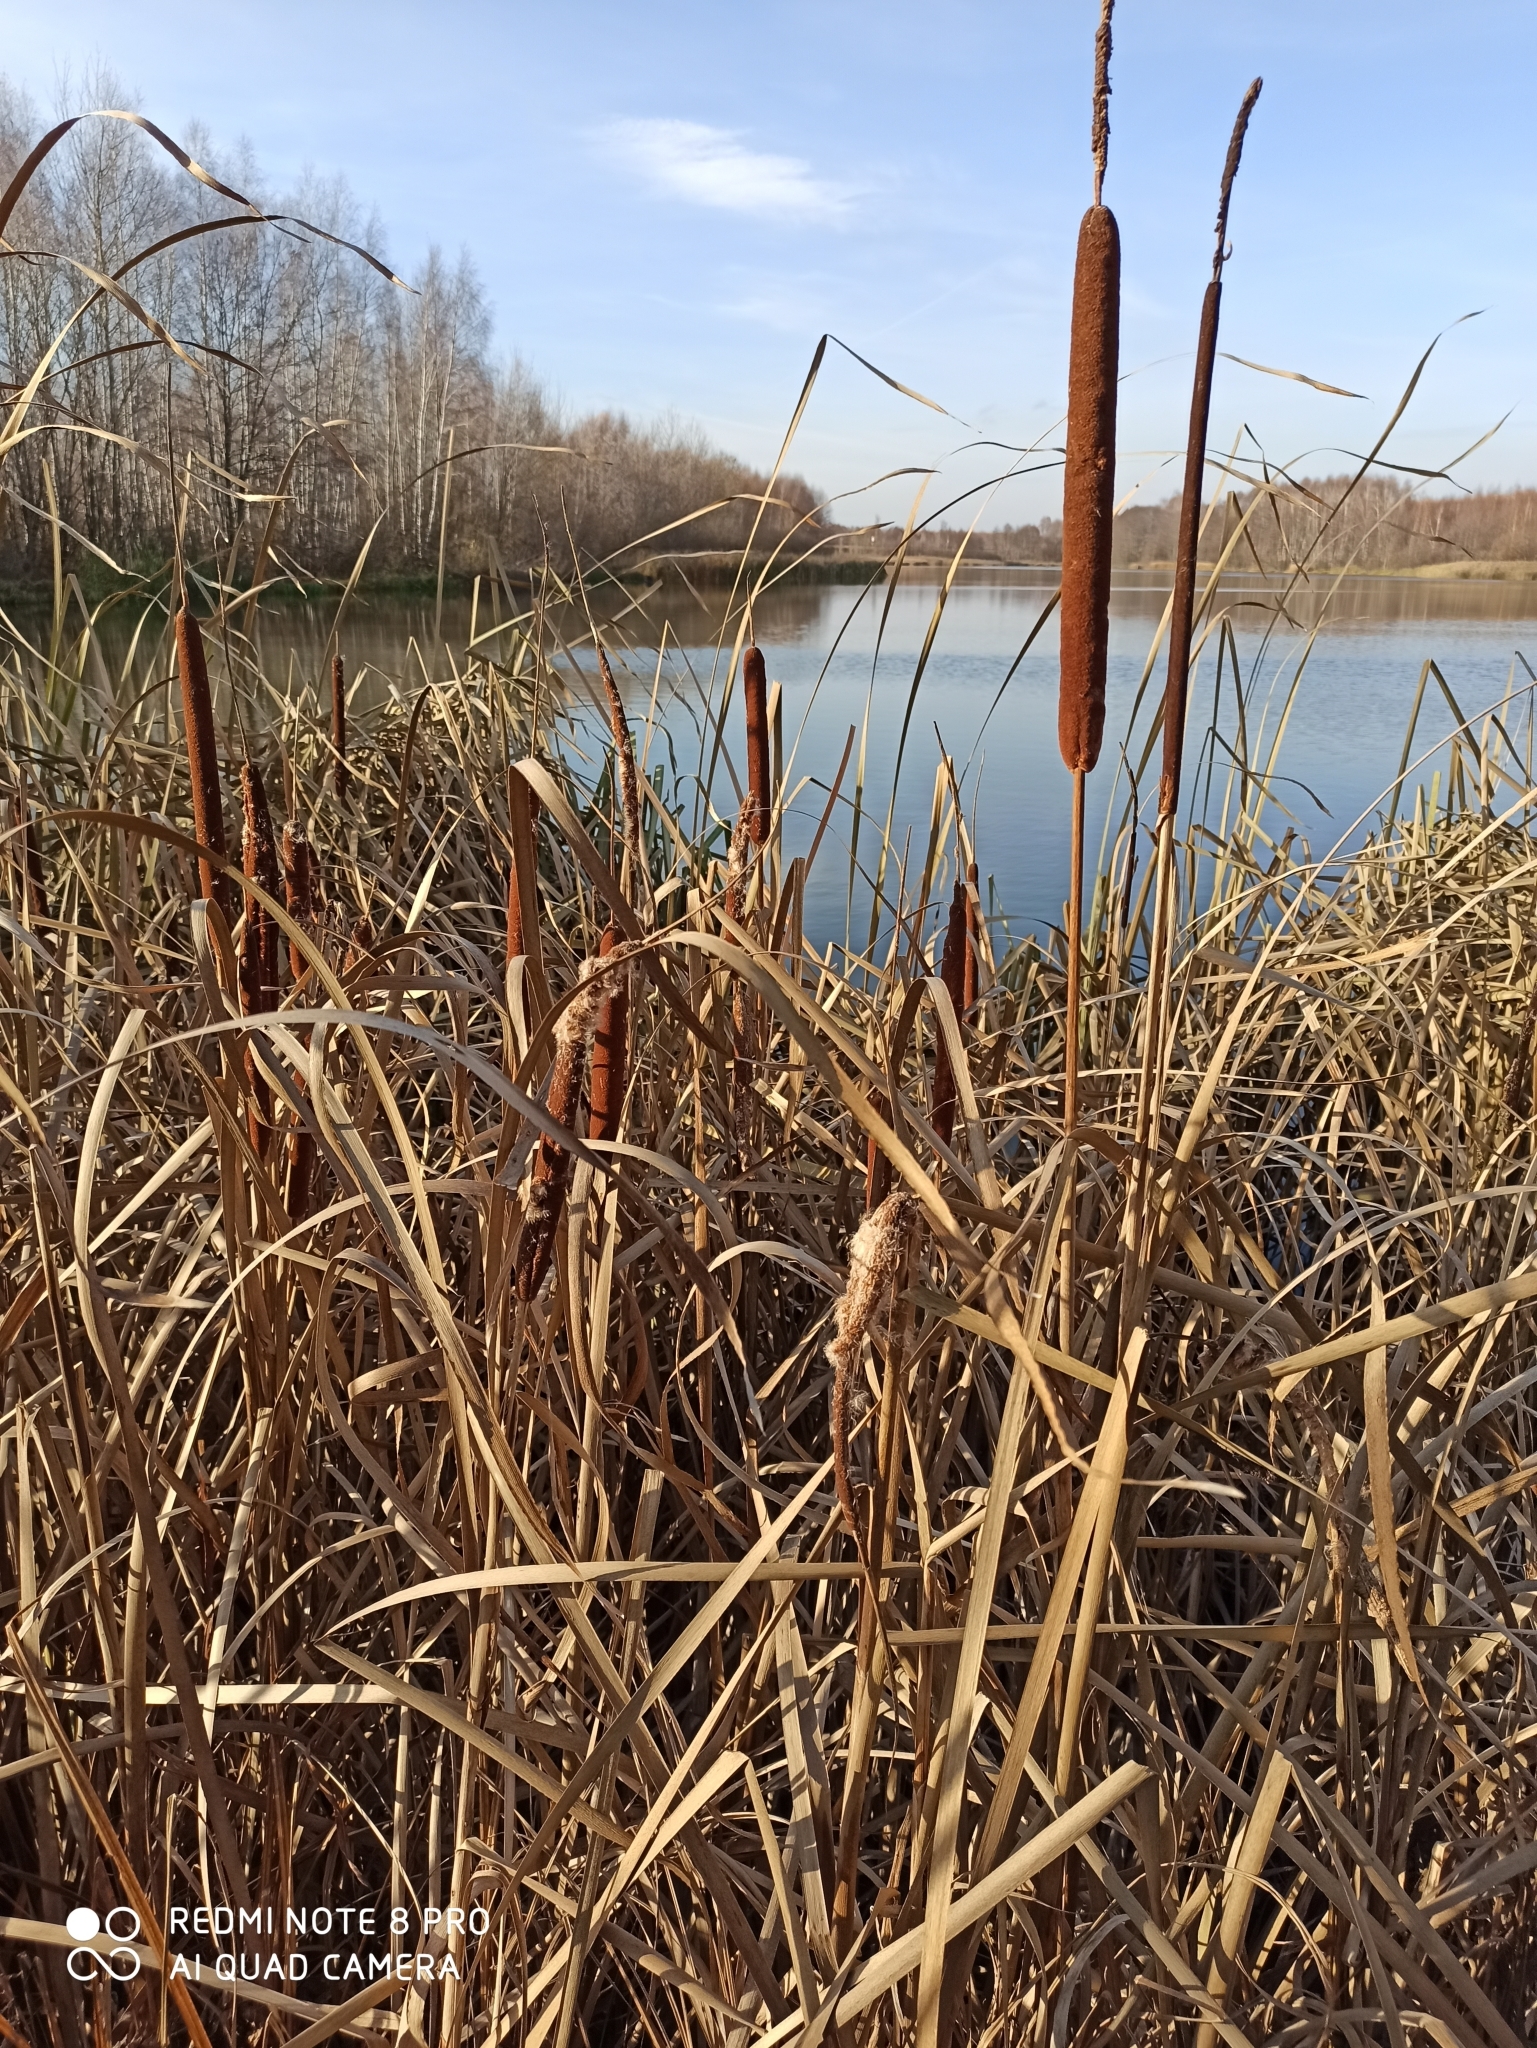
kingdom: Plantae
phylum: Tracheophyta
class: Liliopsida
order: Poales
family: Typhaceae
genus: Typha
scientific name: Typha angustifolia
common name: Lesser bulrush
